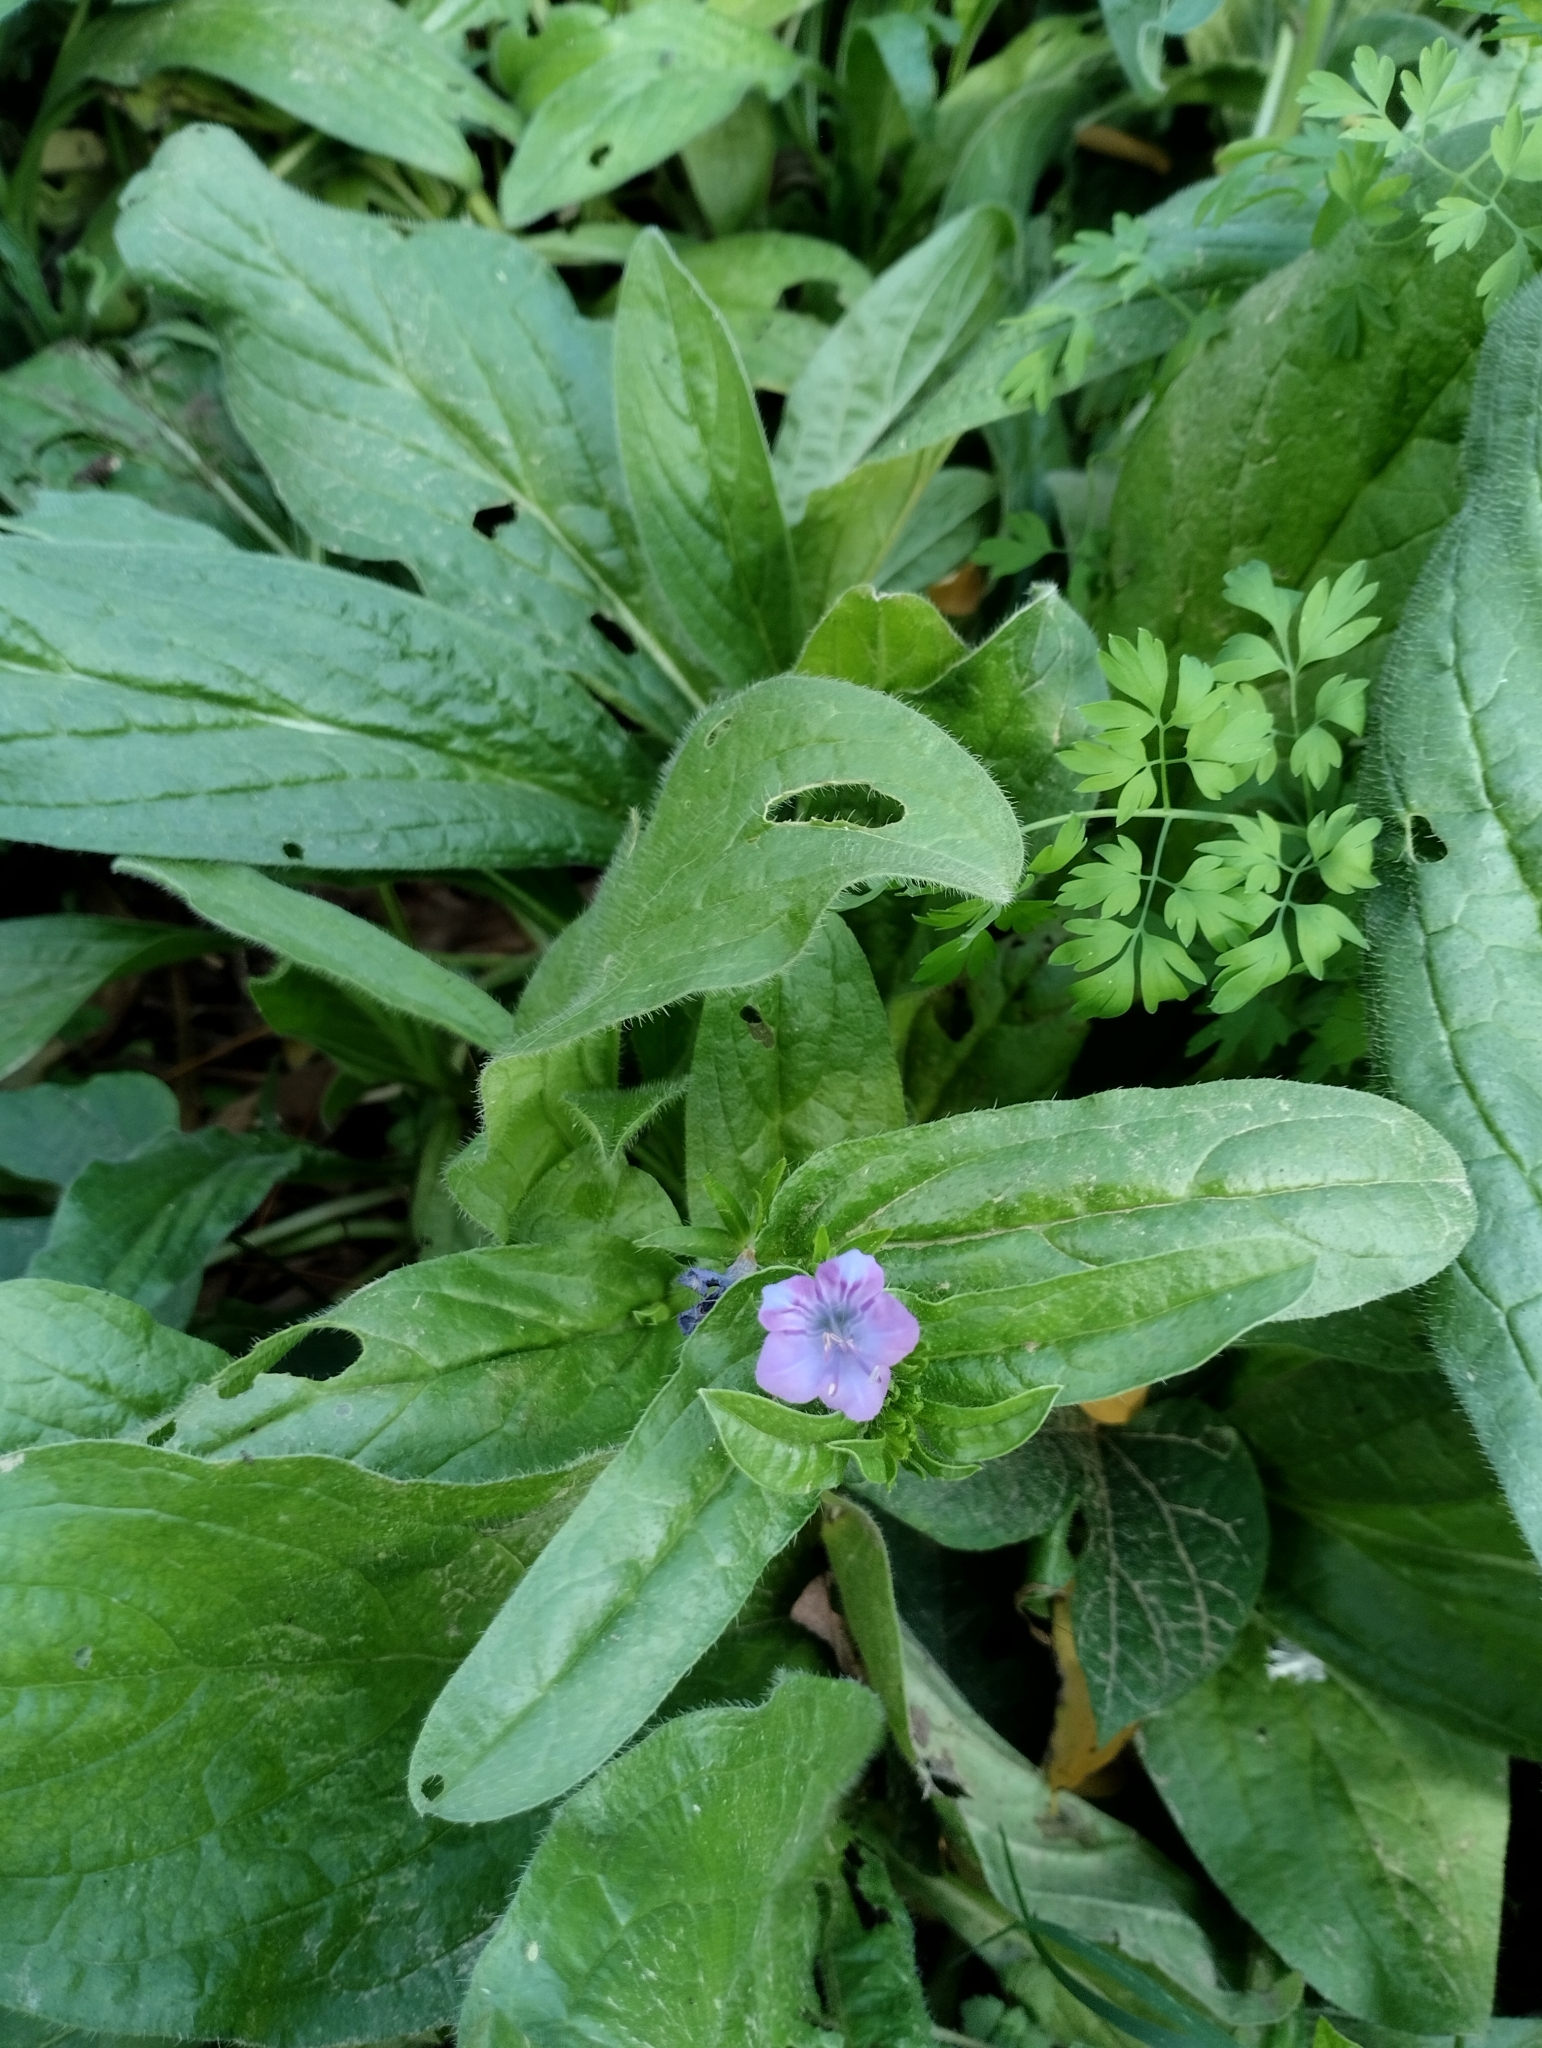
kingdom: Plantae
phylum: Tracheophyta
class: Magnoliopsida
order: Boraginales
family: Boraginaceae
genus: Echium
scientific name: Echium plantagineum
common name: Purple viper's-bugloss
